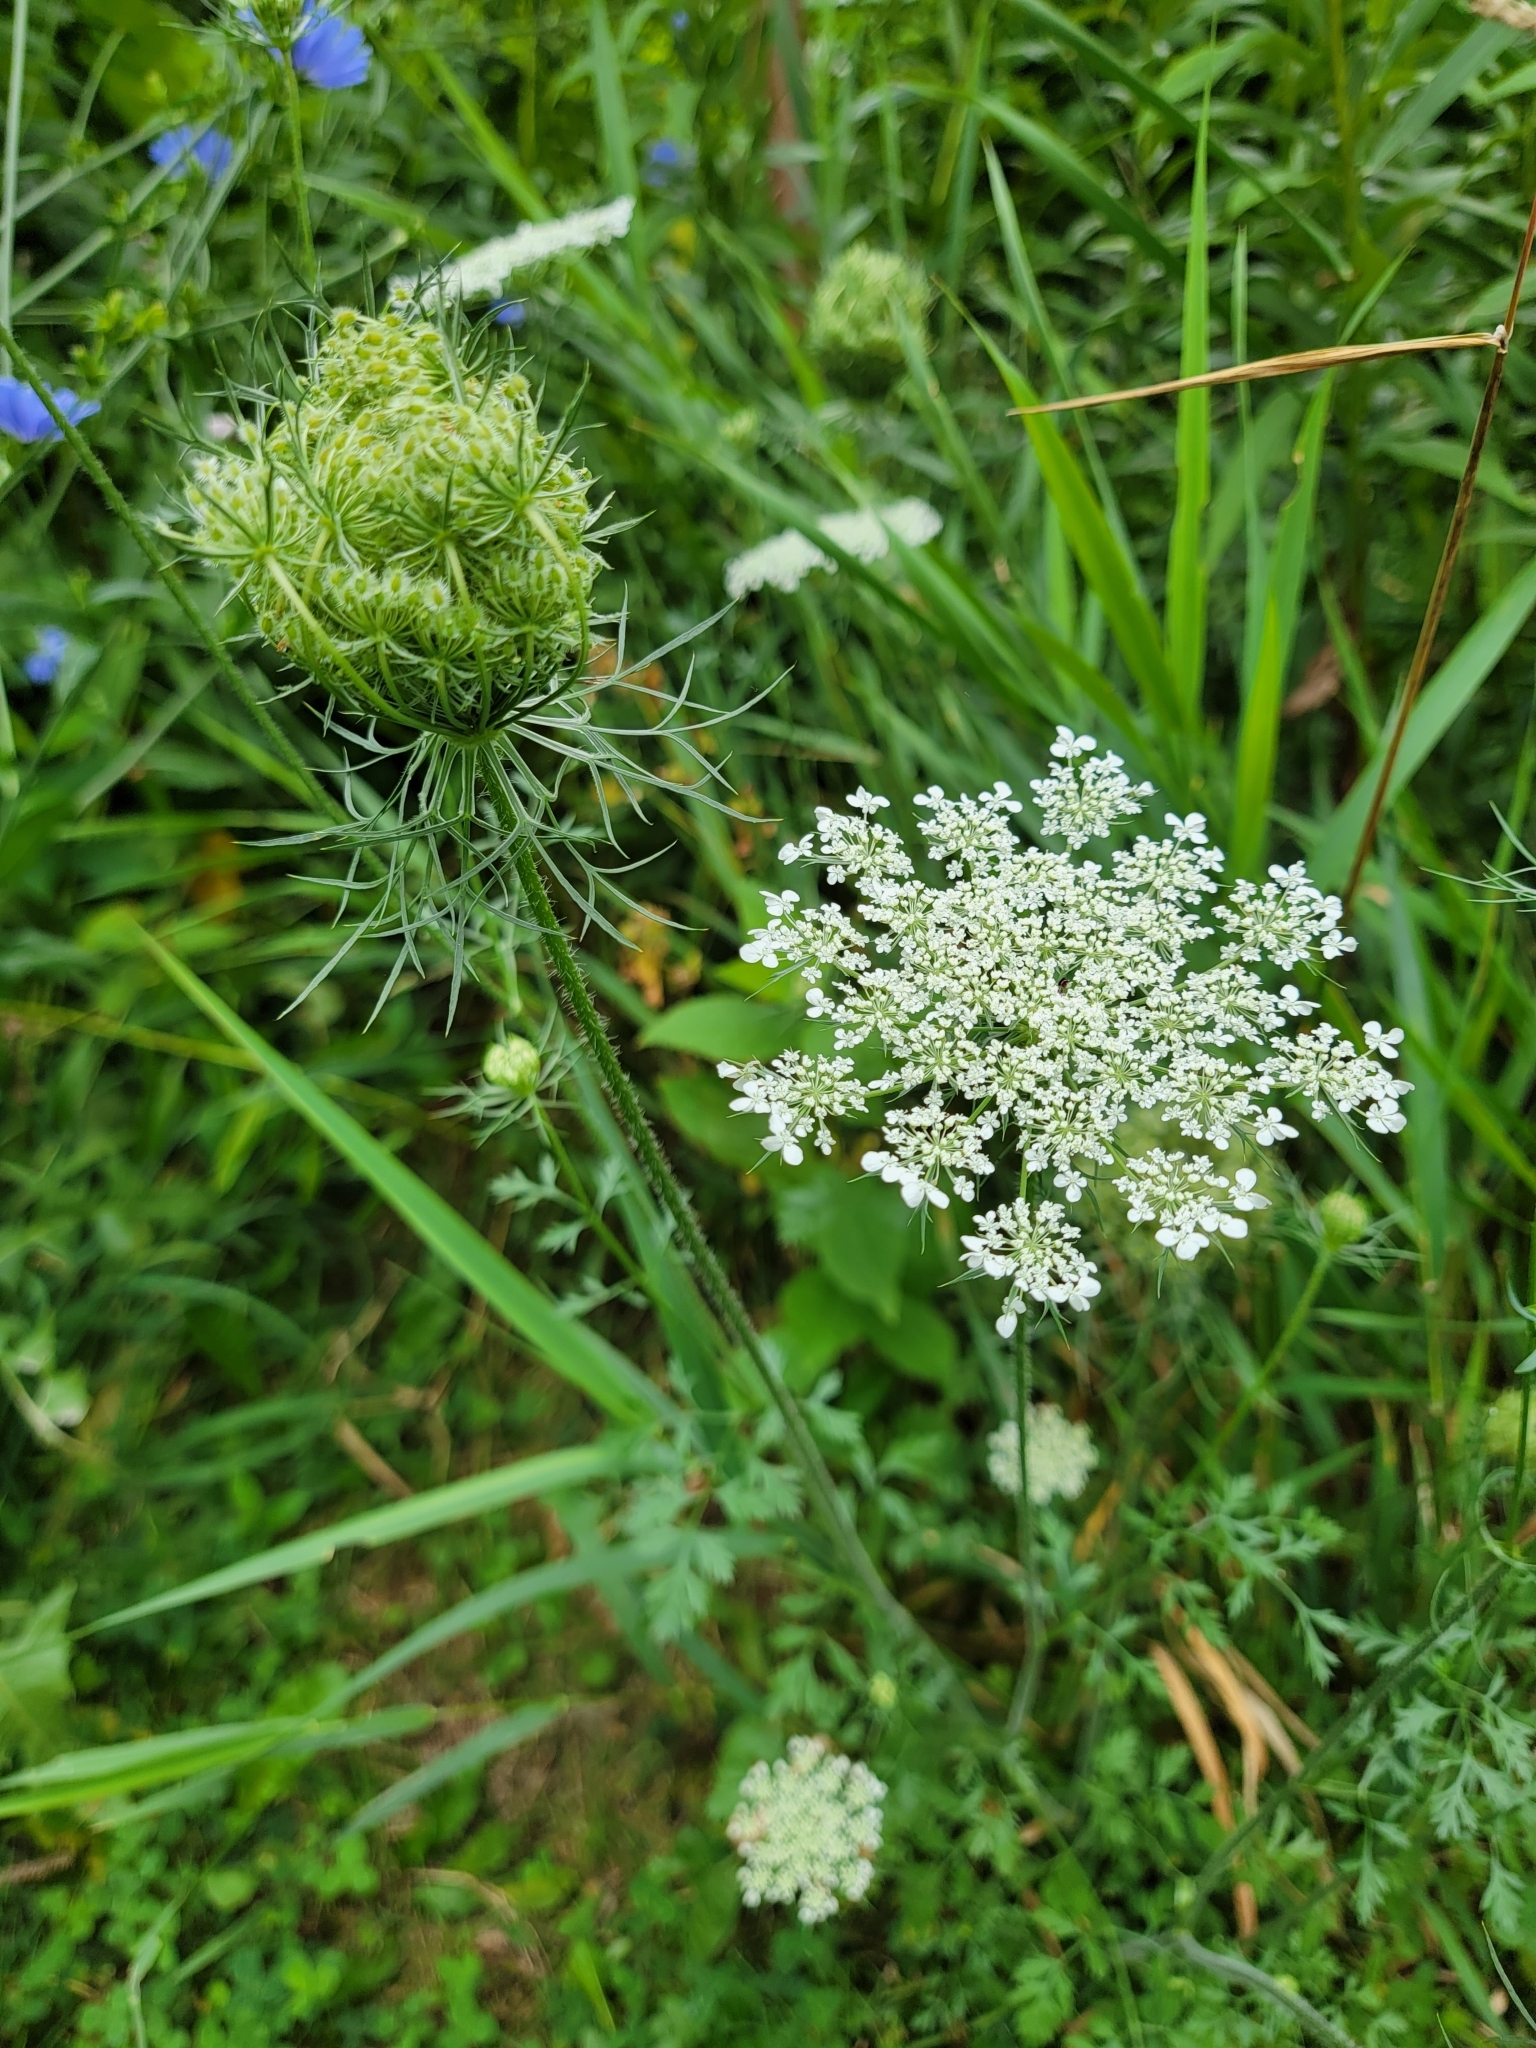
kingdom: Plantae
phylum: Tracheophyta
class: Magnoliopsida
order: Apiales
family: Apiaceae
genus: Daucus
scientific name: Daucus carota
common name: Wild carrot
